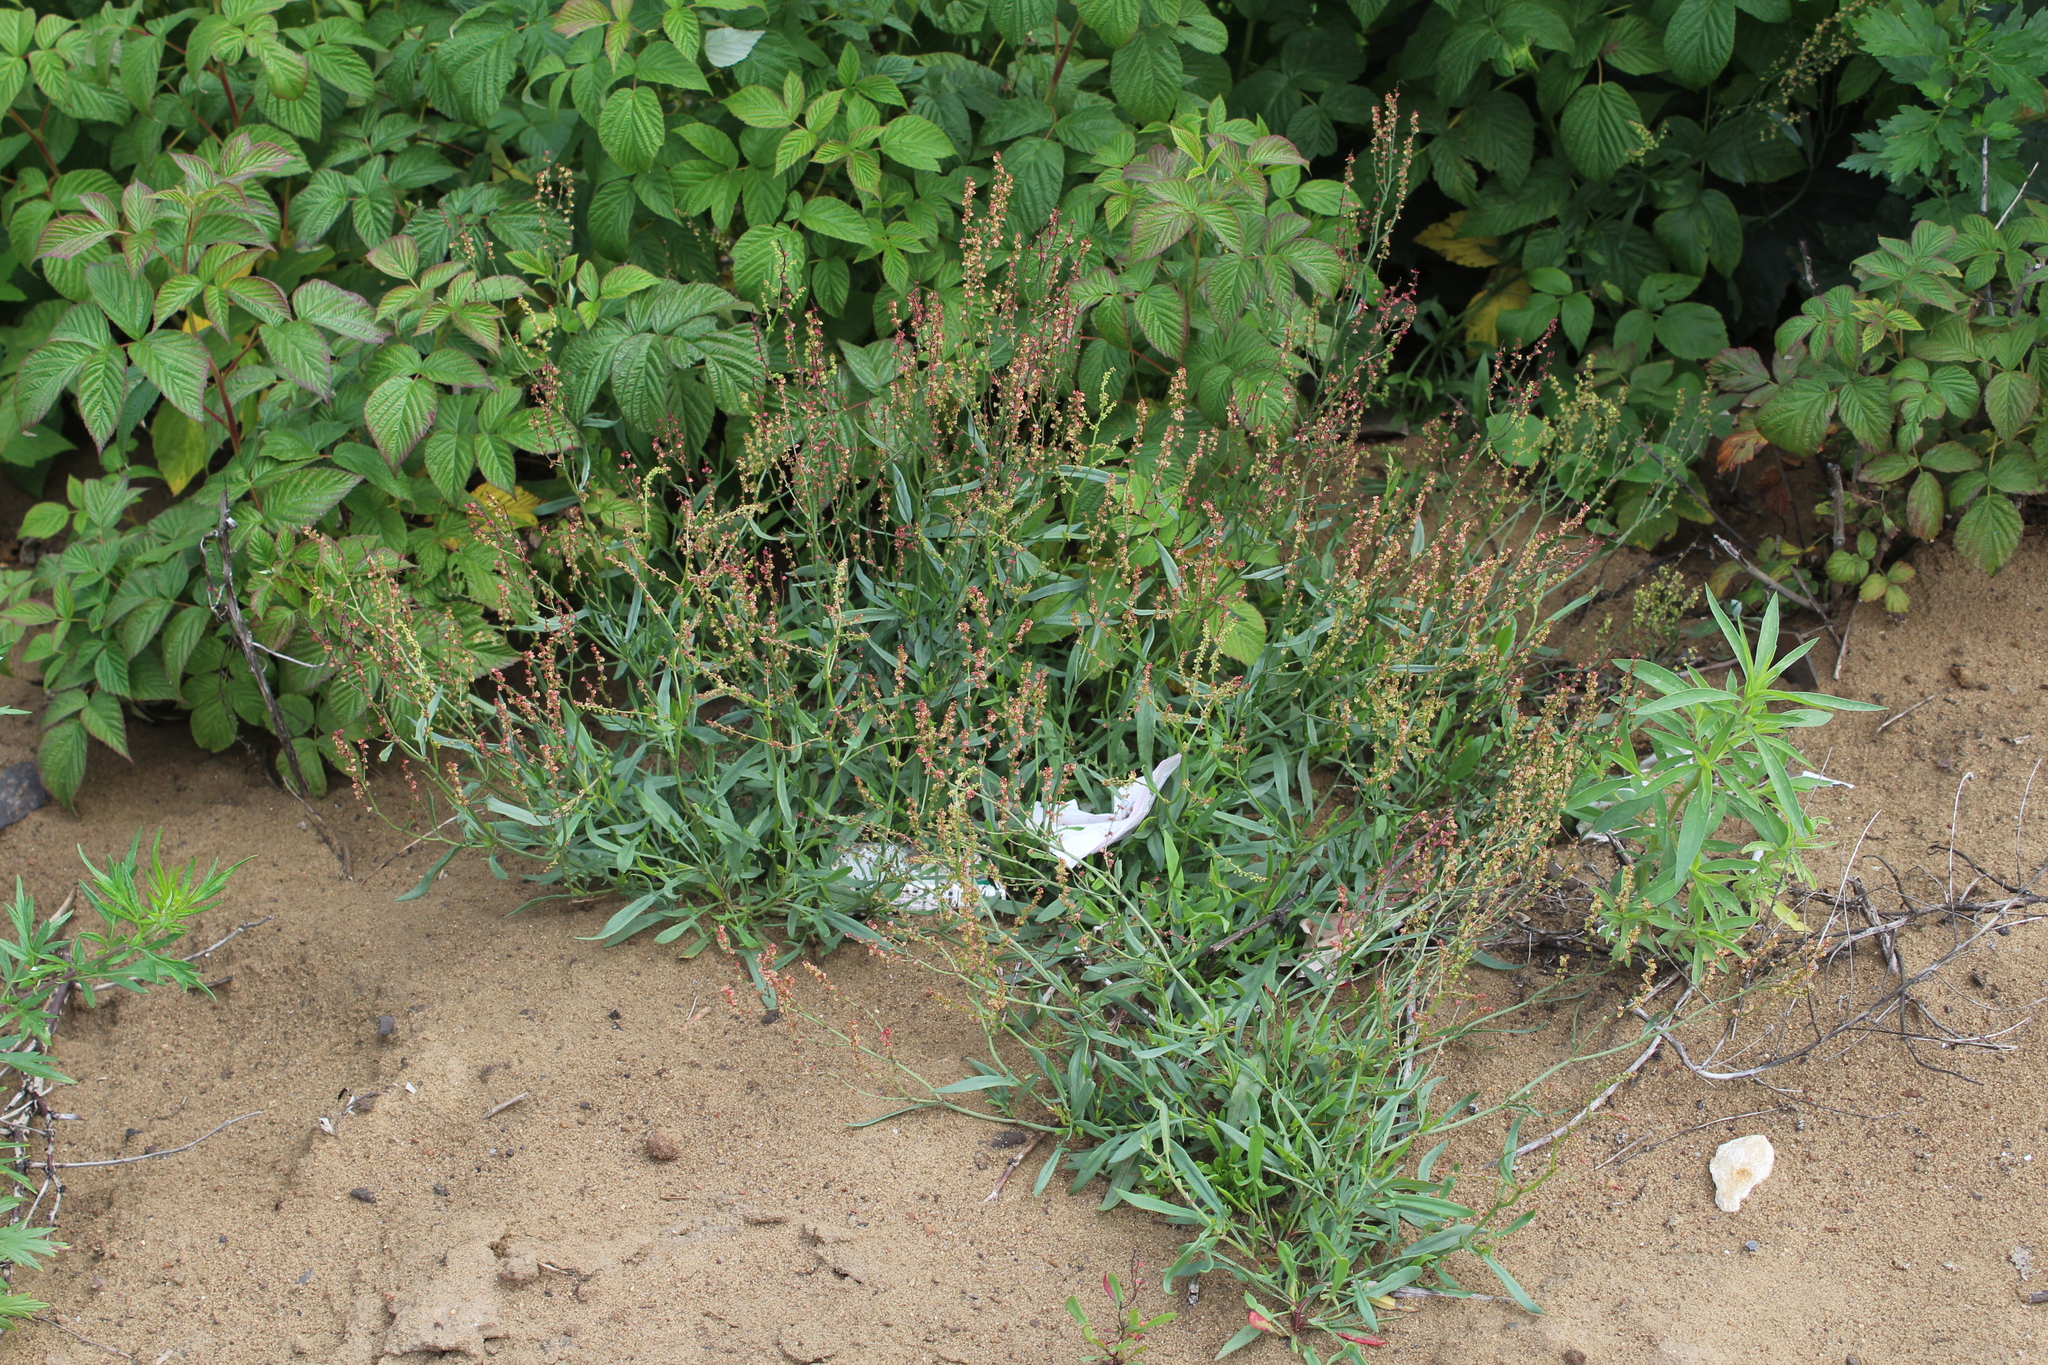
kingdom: Plantae
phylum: Tracheophyta
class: Magnoliopsida
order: Caryophyllales
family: Polygonaceae
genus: Rumex
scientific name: Rumex acetosella
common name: Common sheep sorrel
